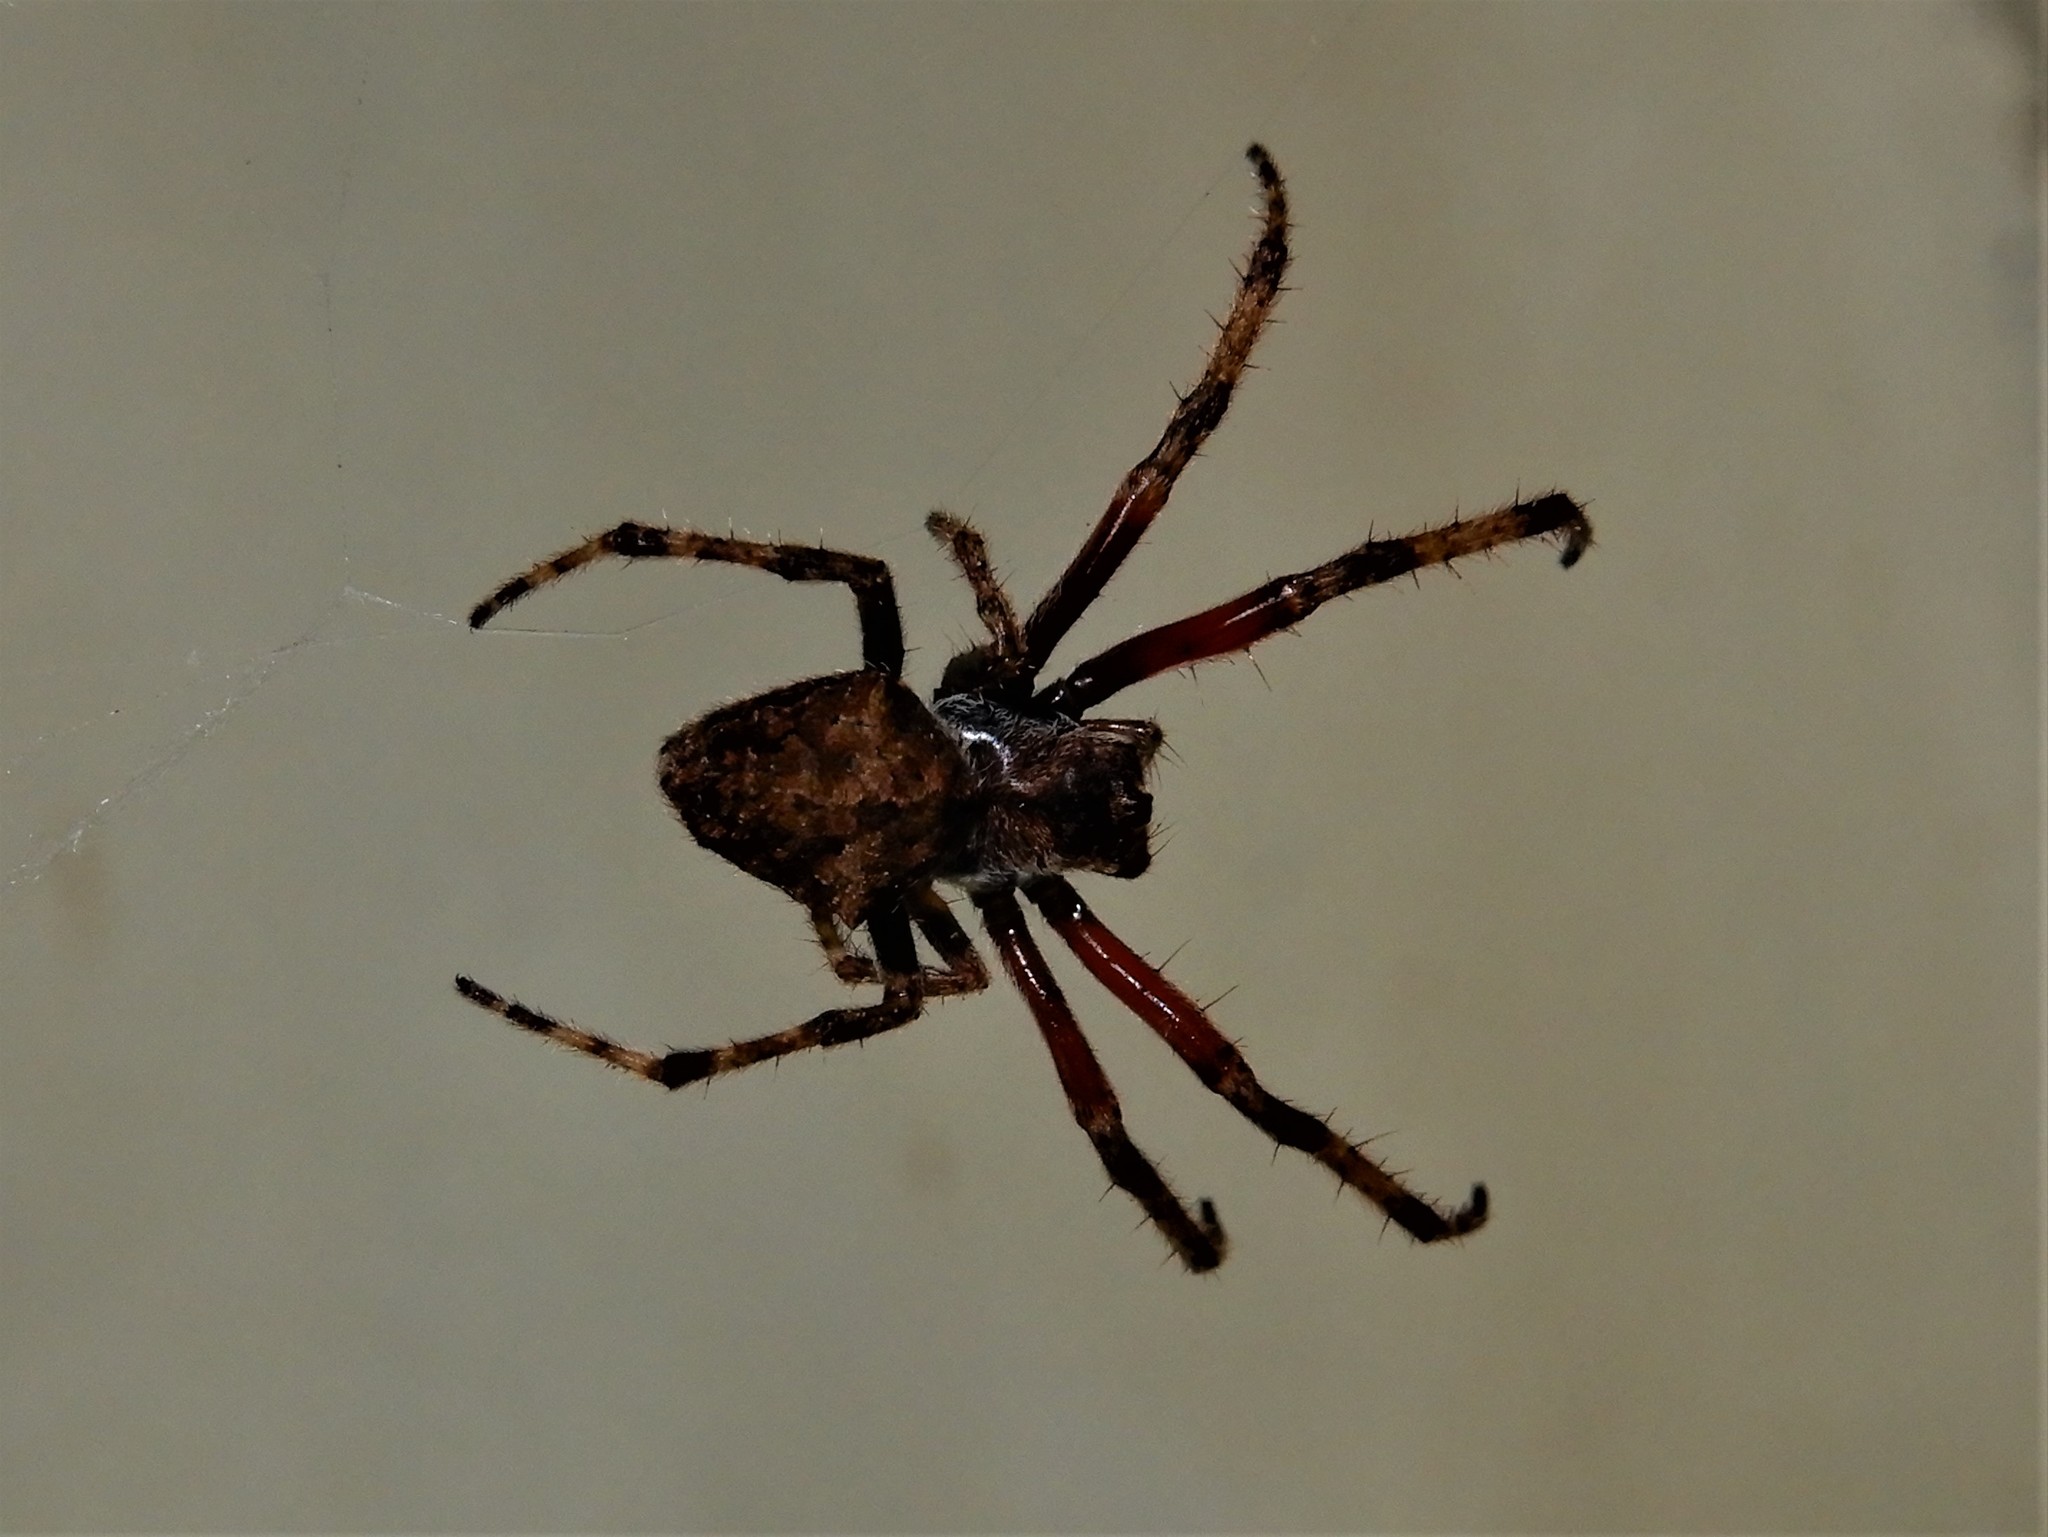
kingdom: Animalia
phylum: Arthropoda
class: Arachnida
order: Araneae
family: Araneidae
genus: Eriophora
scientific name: Eriophora pustulosa
